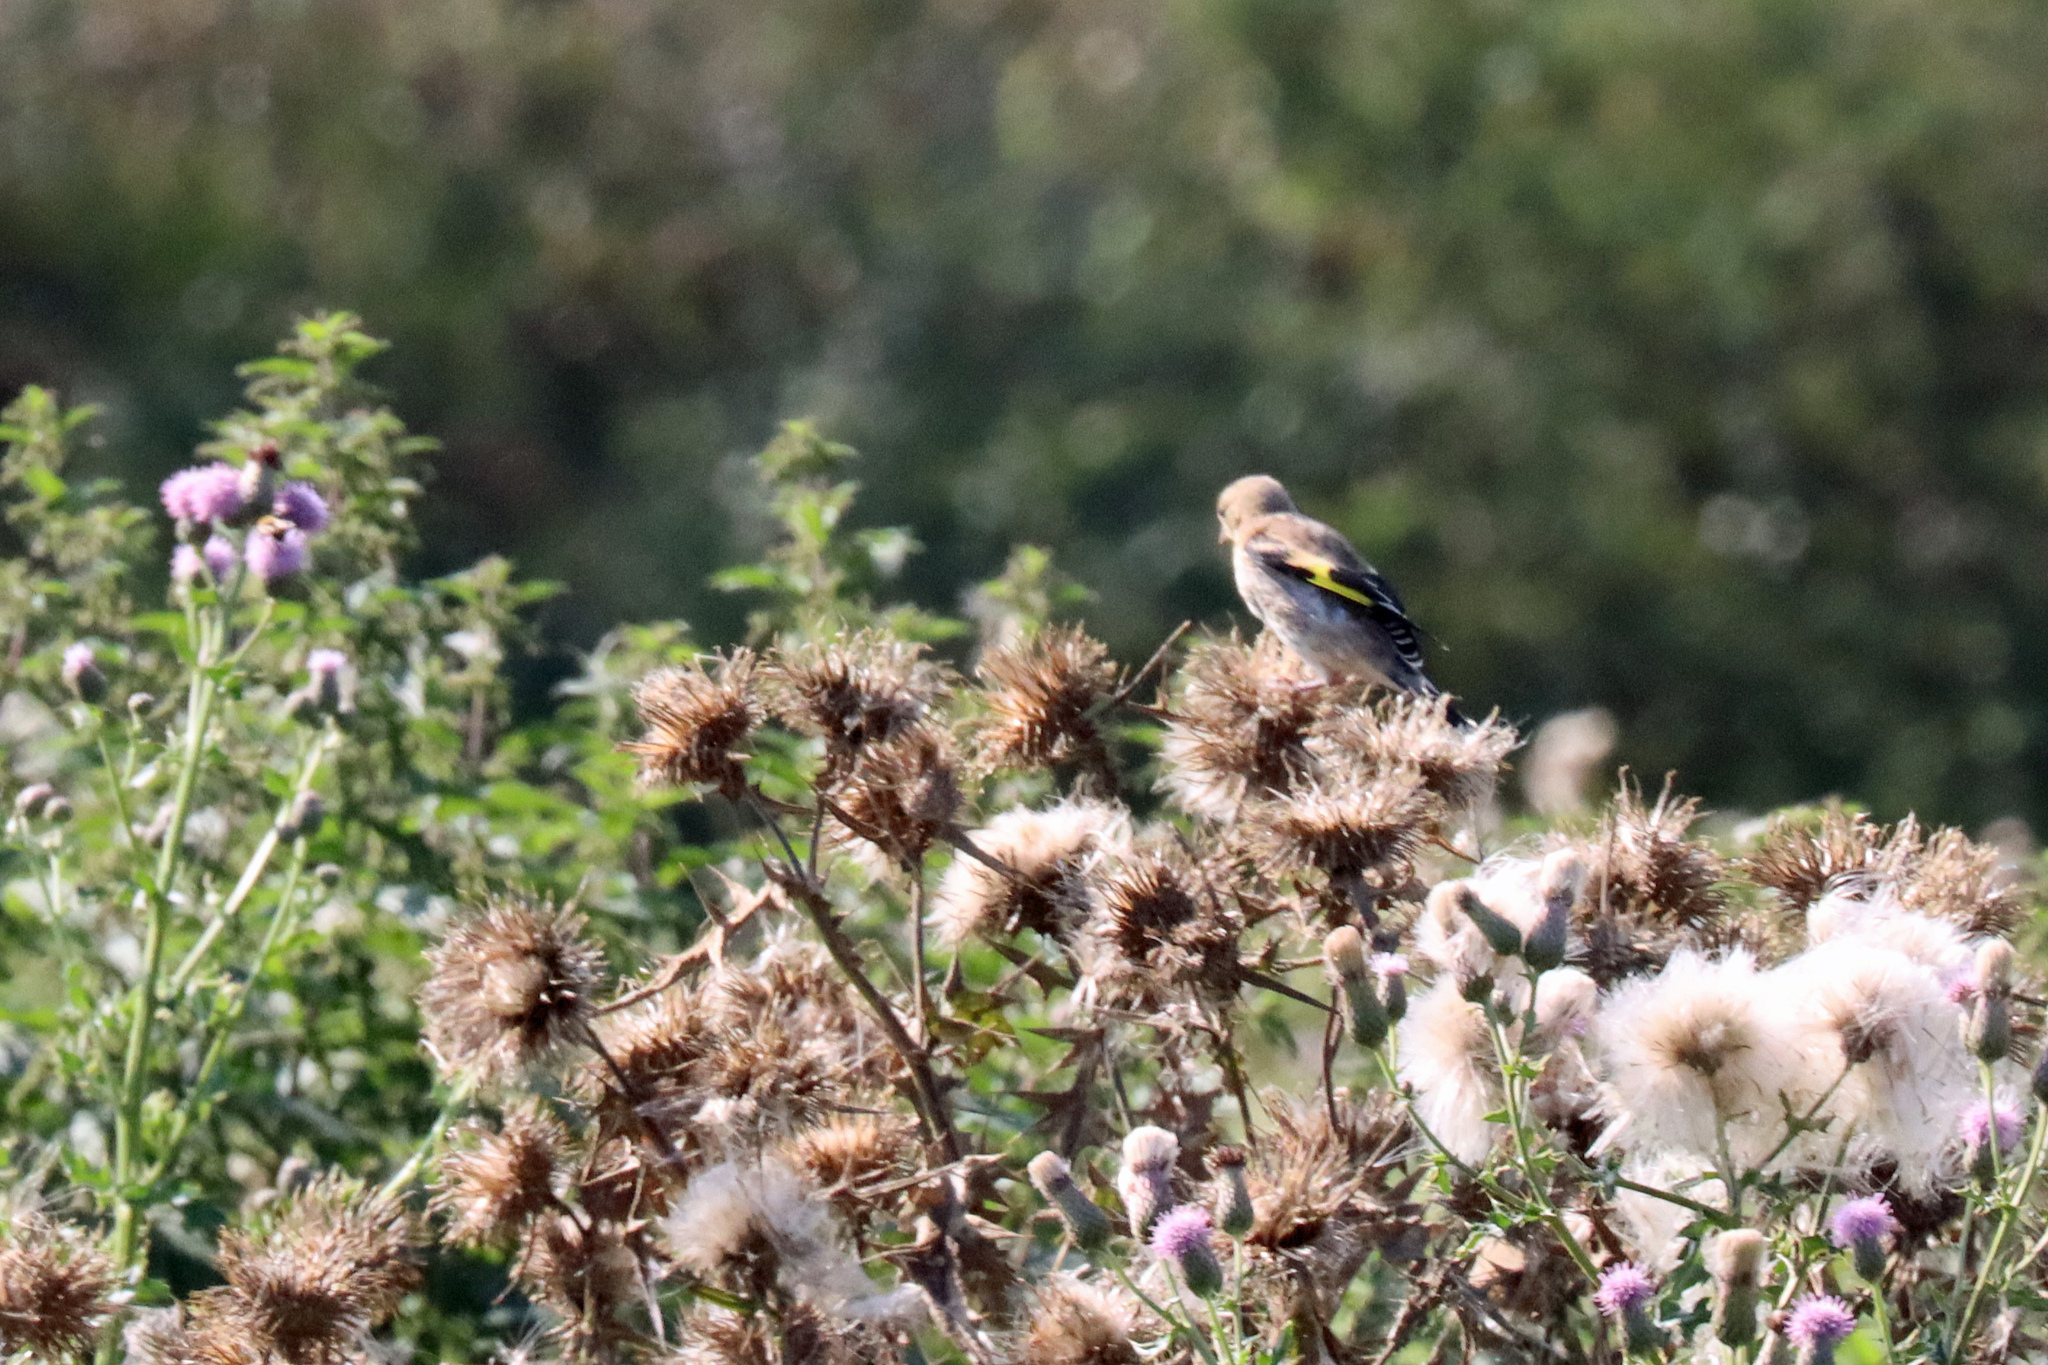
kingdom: Animalia
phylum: Chordata
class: Aves
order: Passeriformes
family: Fringillidae
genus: Carduelis
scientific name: Carduelis carduelis
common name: European goldfinch
